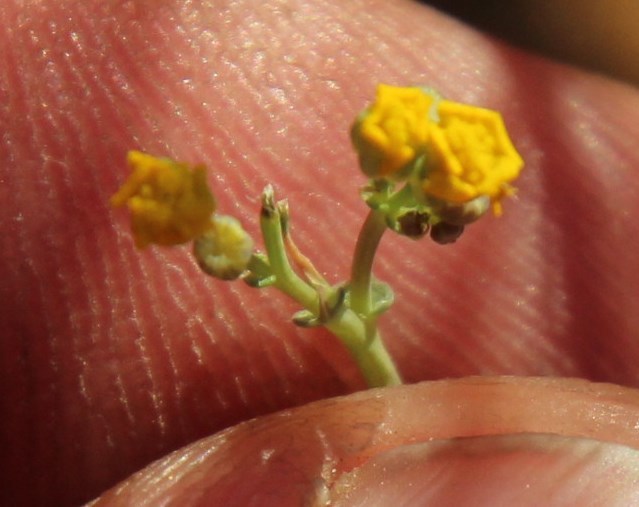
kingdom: Plantae
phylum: Tracheophyta
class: Magnoliopsida
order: Asterales
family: Asteraceae
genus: Gymnodiscus
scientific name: Gymnodiscus capillaris
